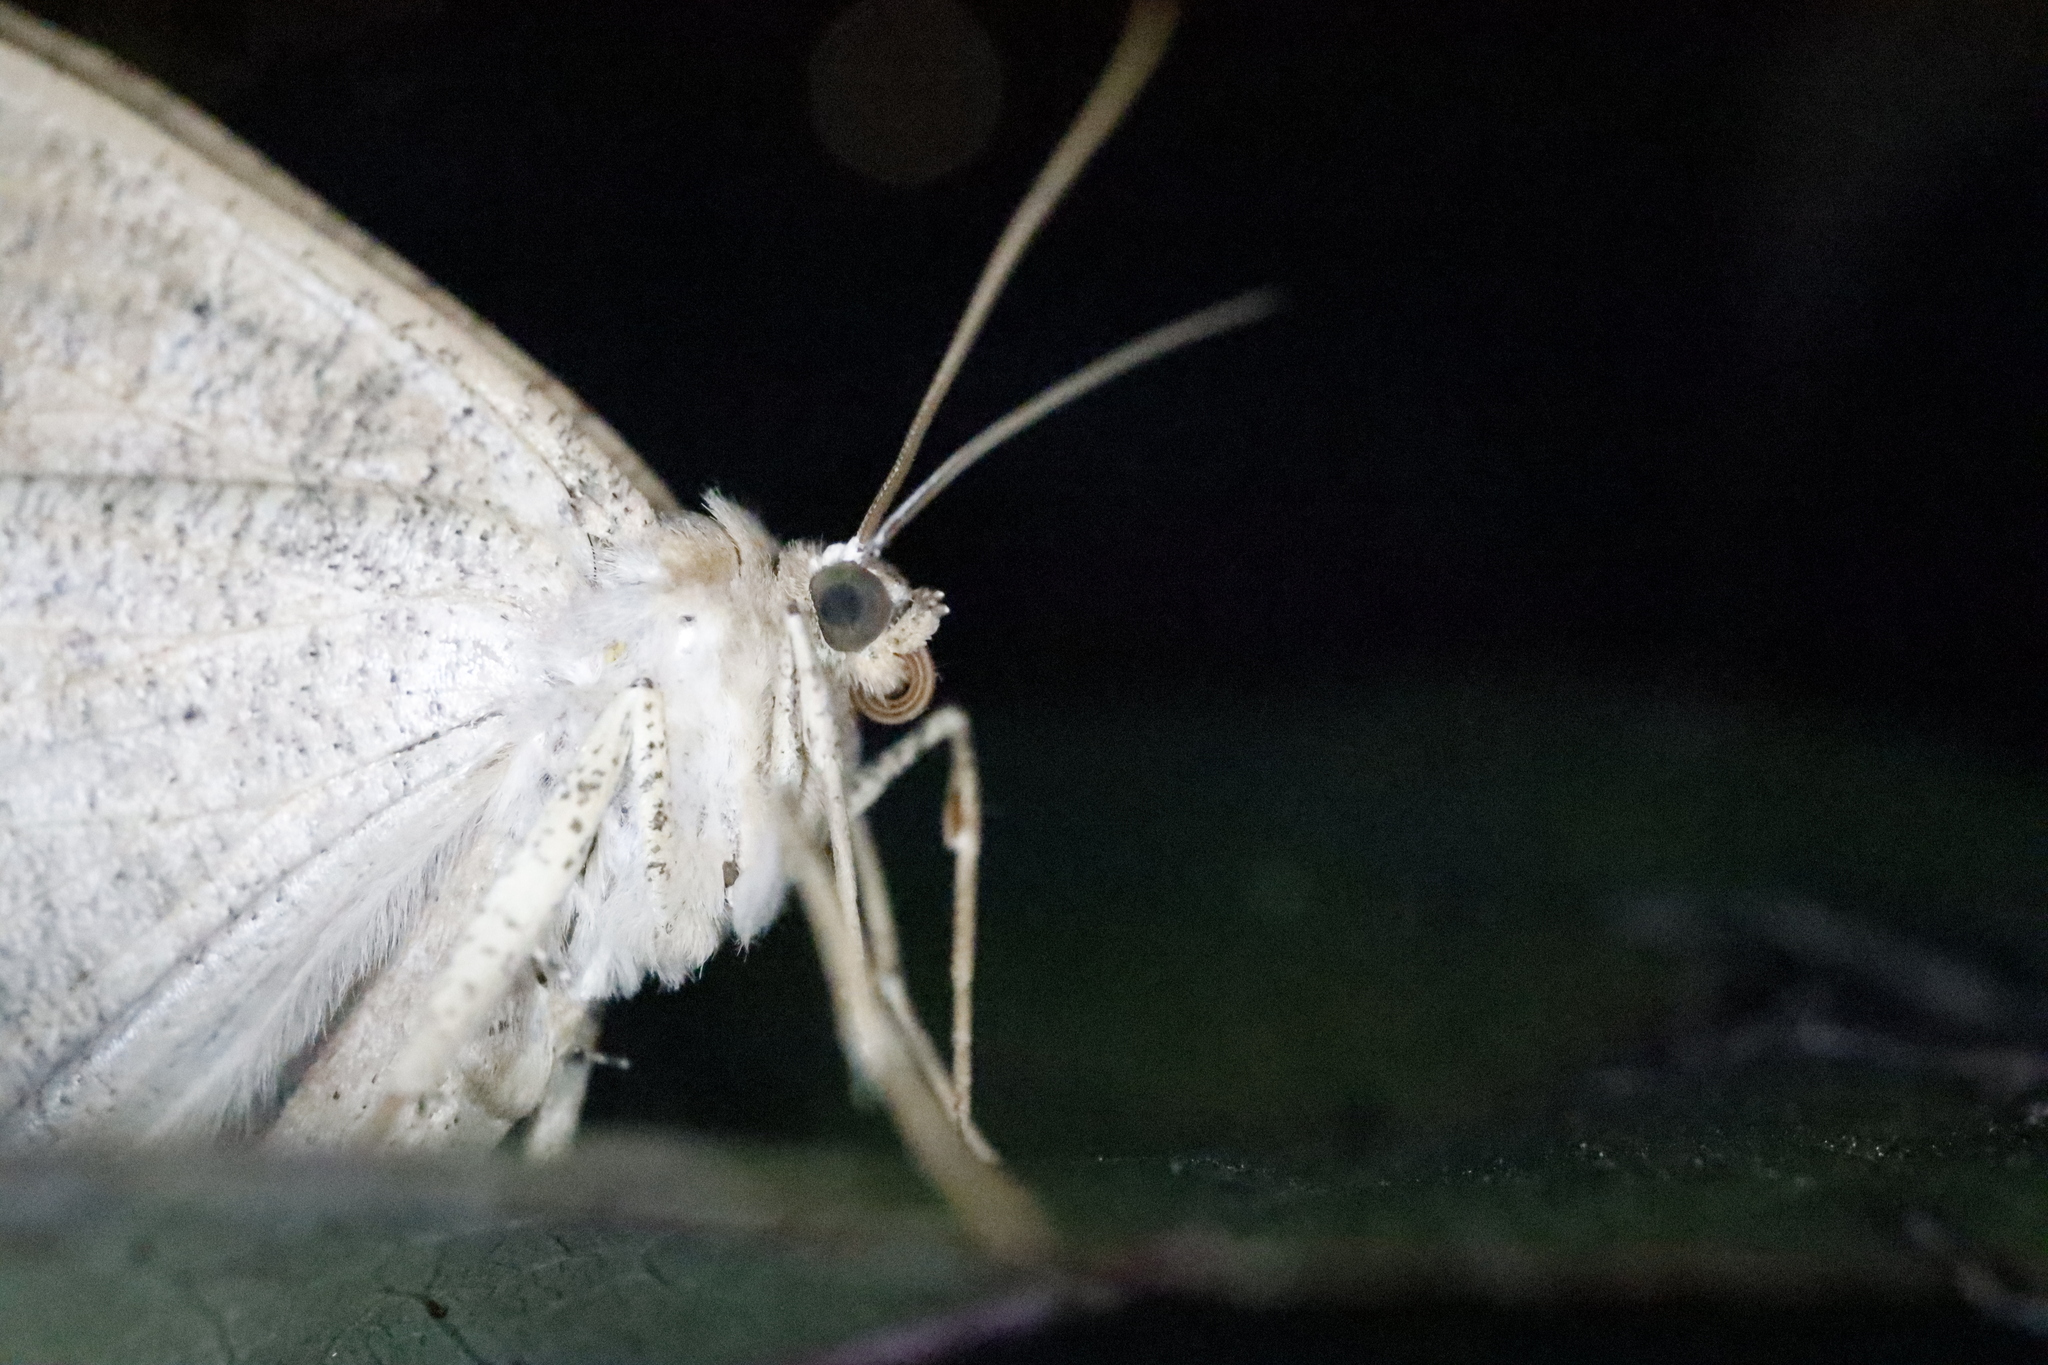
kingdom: Animalia
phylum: Arthropoda
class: Insecta
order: Lepidoptera
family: Geometridae
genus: Prochoerodes
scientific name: Prochoerodes lineola
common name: Large maple spanworm
